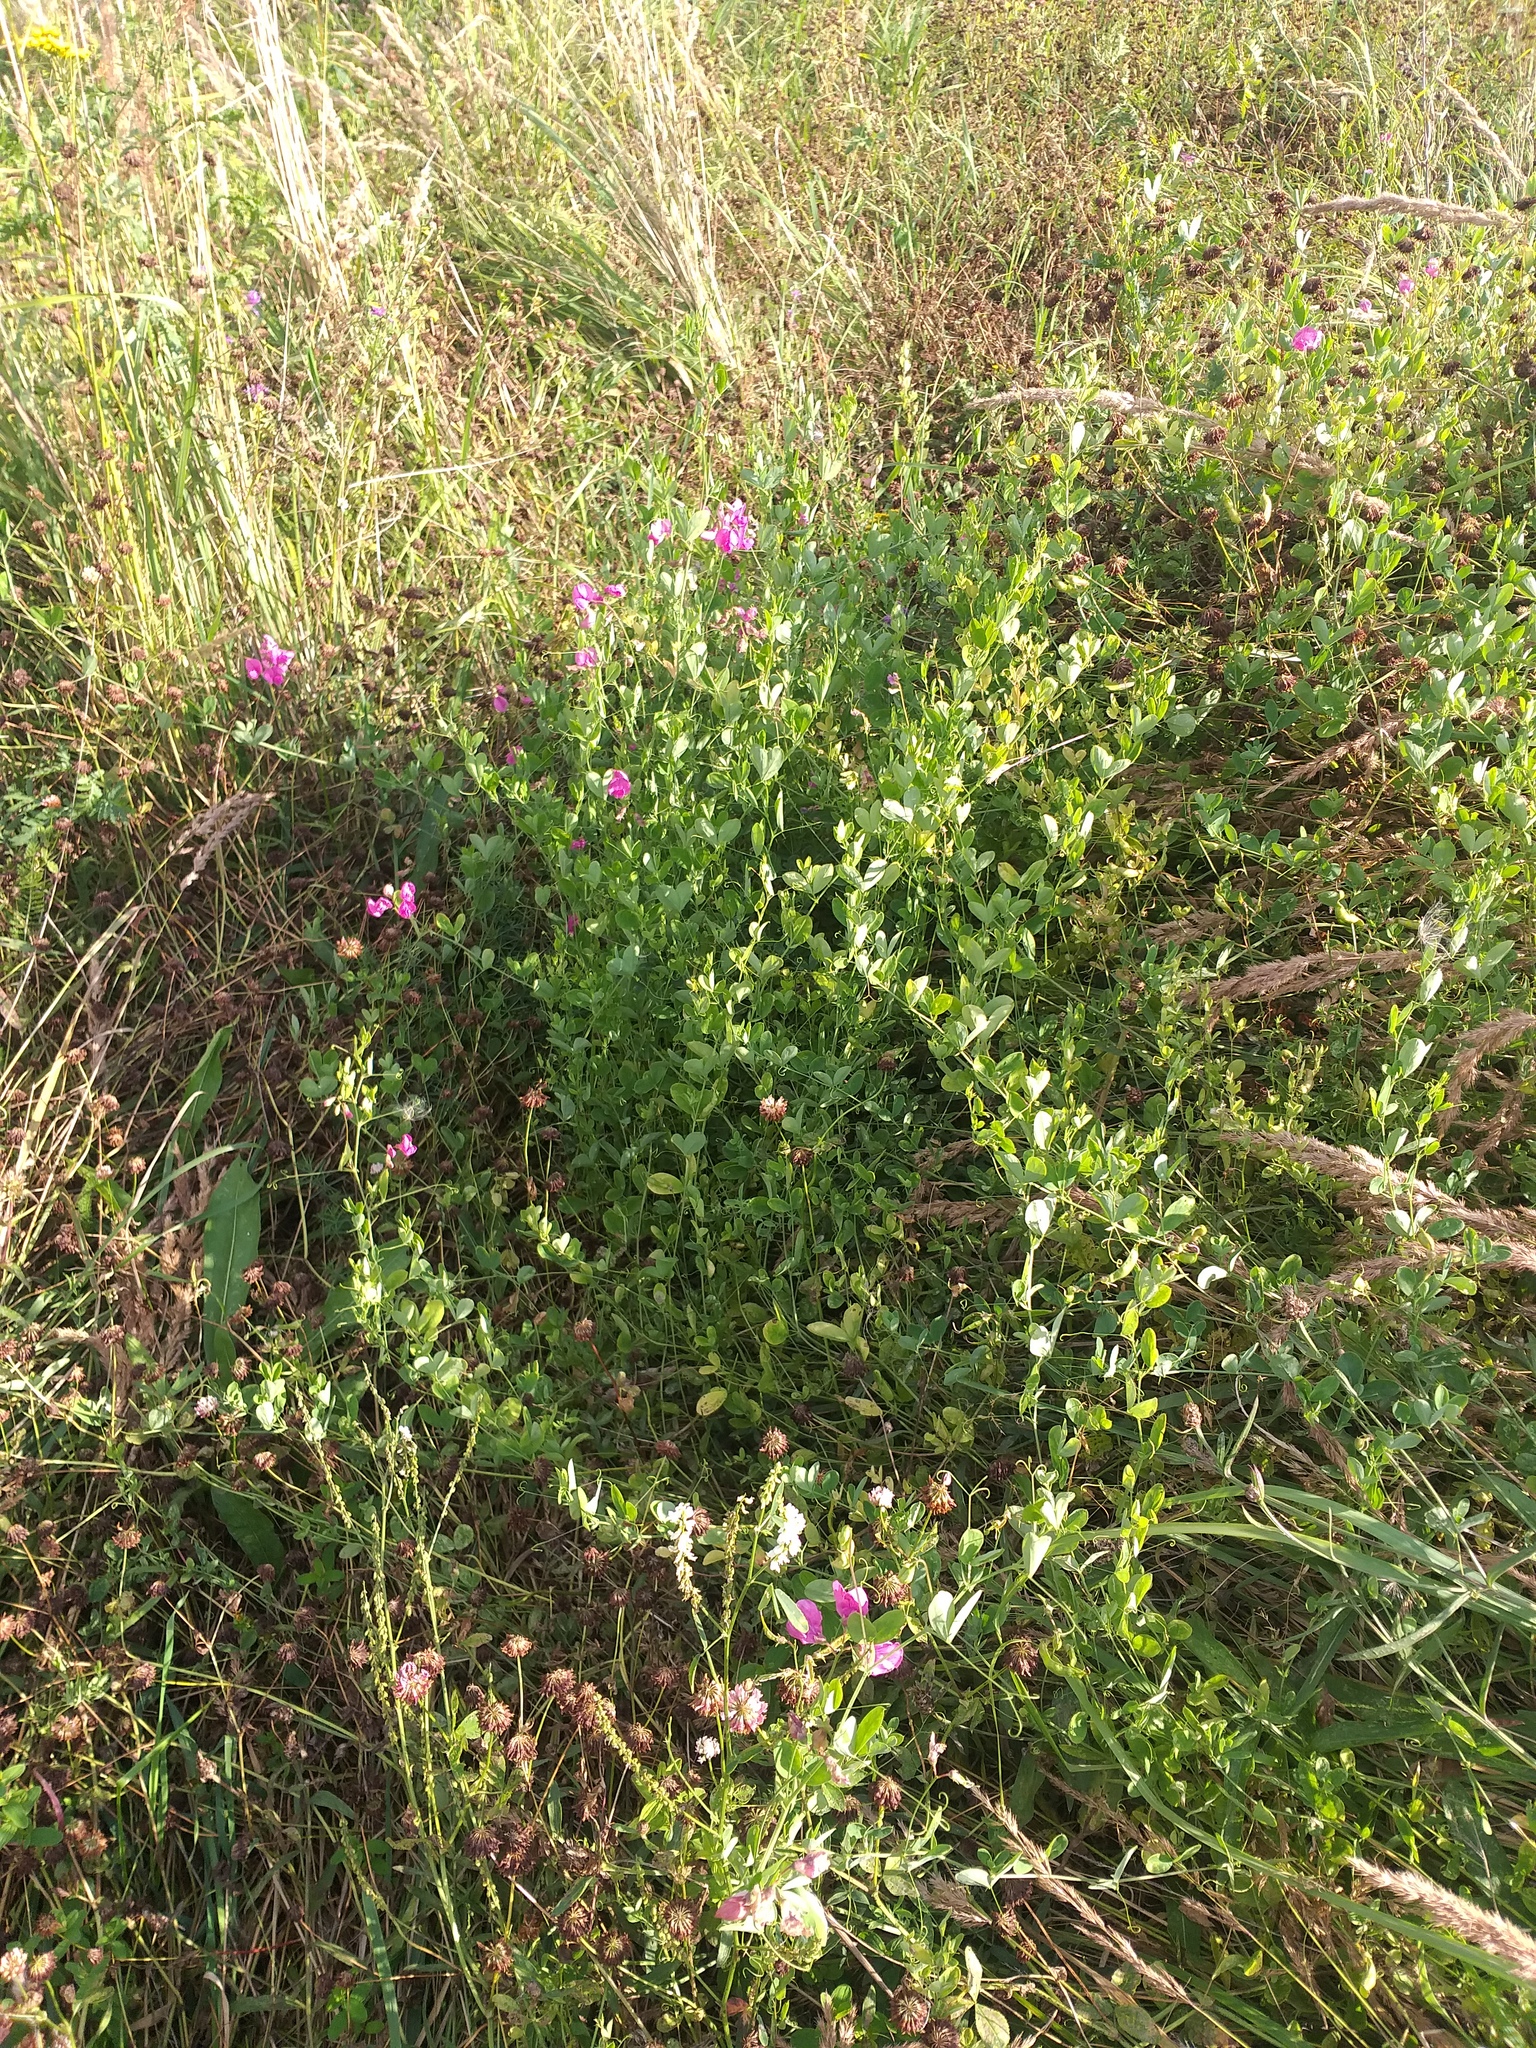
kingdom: Plantae
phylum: Tracheophyta
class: Magnoliopsida
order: Fabales
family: Fabaceae
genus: Lathyrus
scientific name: Lathyrus tuberosus
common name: Tuberous pea
